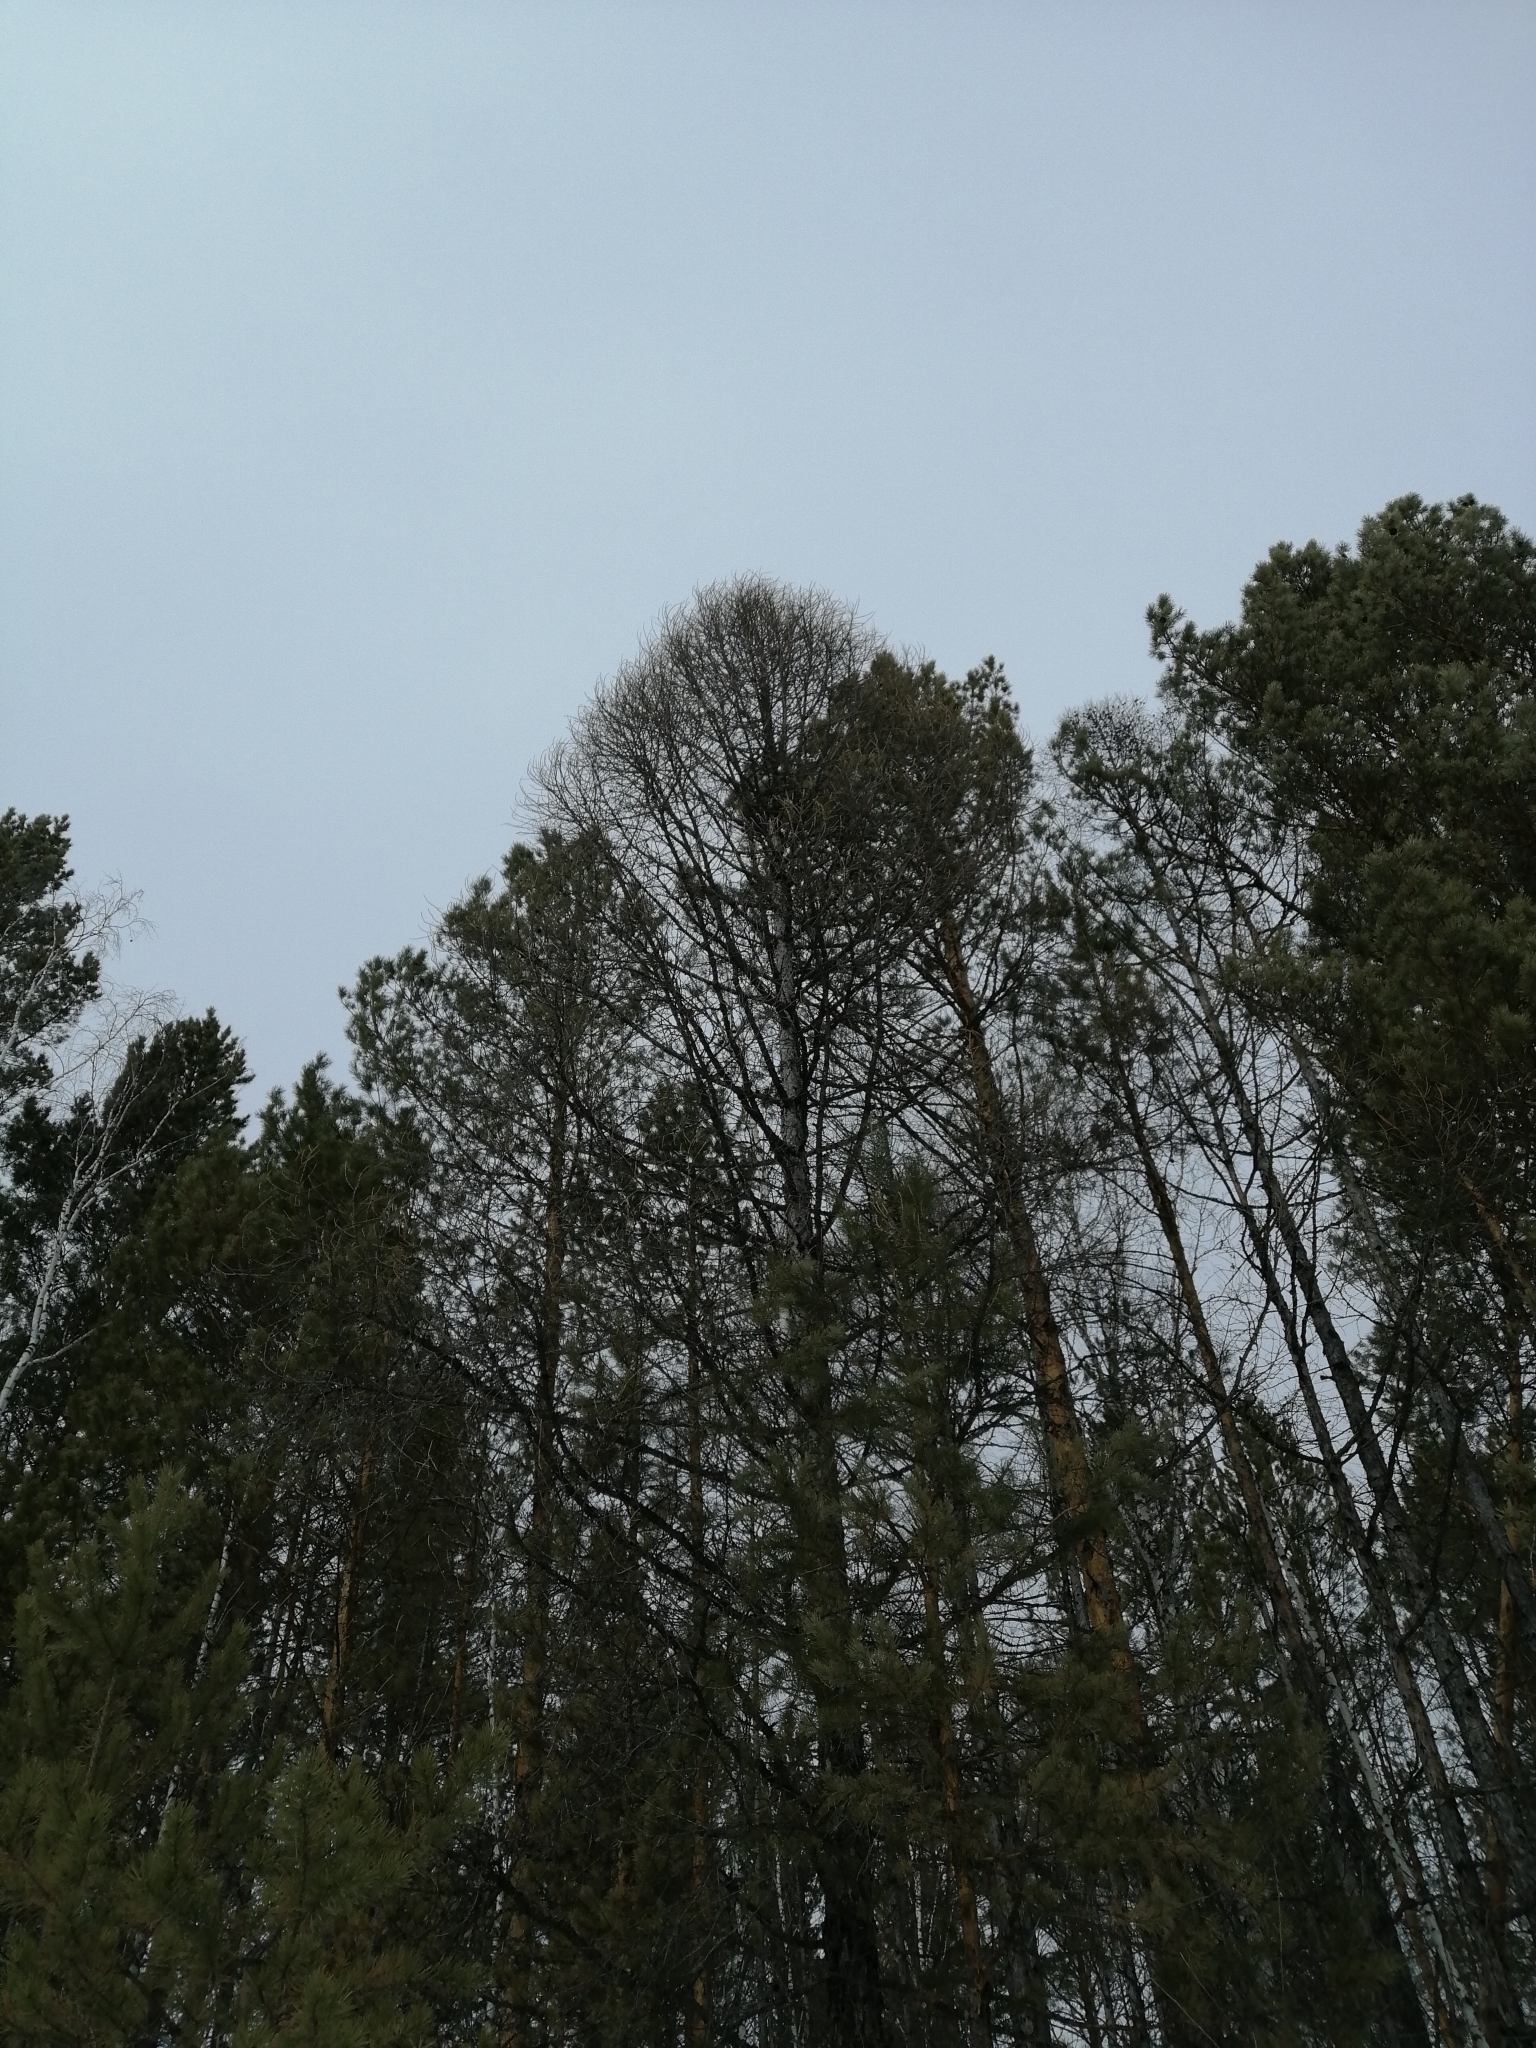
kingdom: Plantae
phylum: Tracheophyta
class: Pinopsida
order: Pinales
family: Pinaceae
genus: Larix
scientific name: Larix sibirica
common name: Siberian larch
